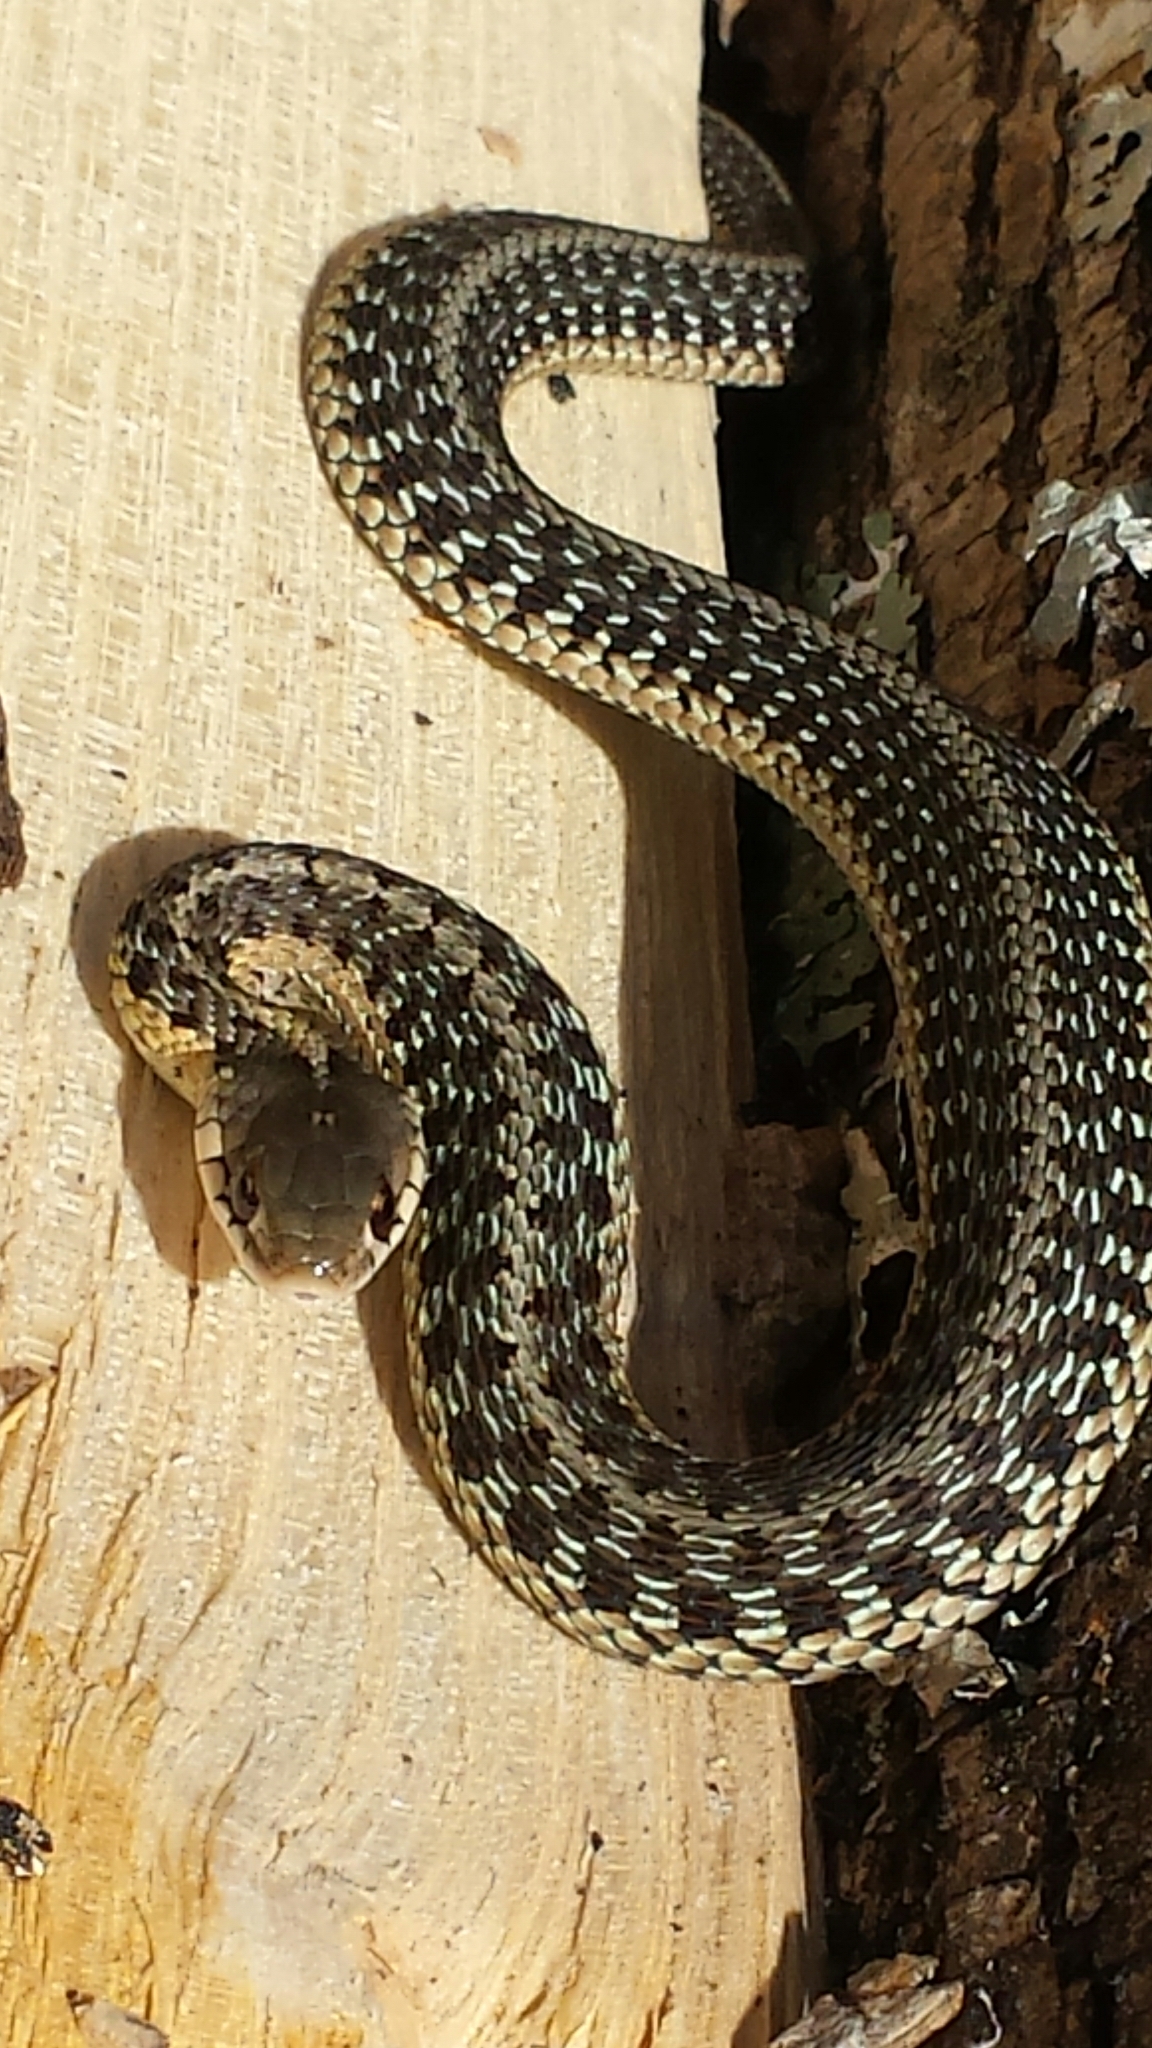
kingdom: Animalia
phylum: Chordata
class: Squamata
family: Colubridae
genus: Thamnophis
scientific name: Thamnophis sirtalis
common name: Common garter snake
